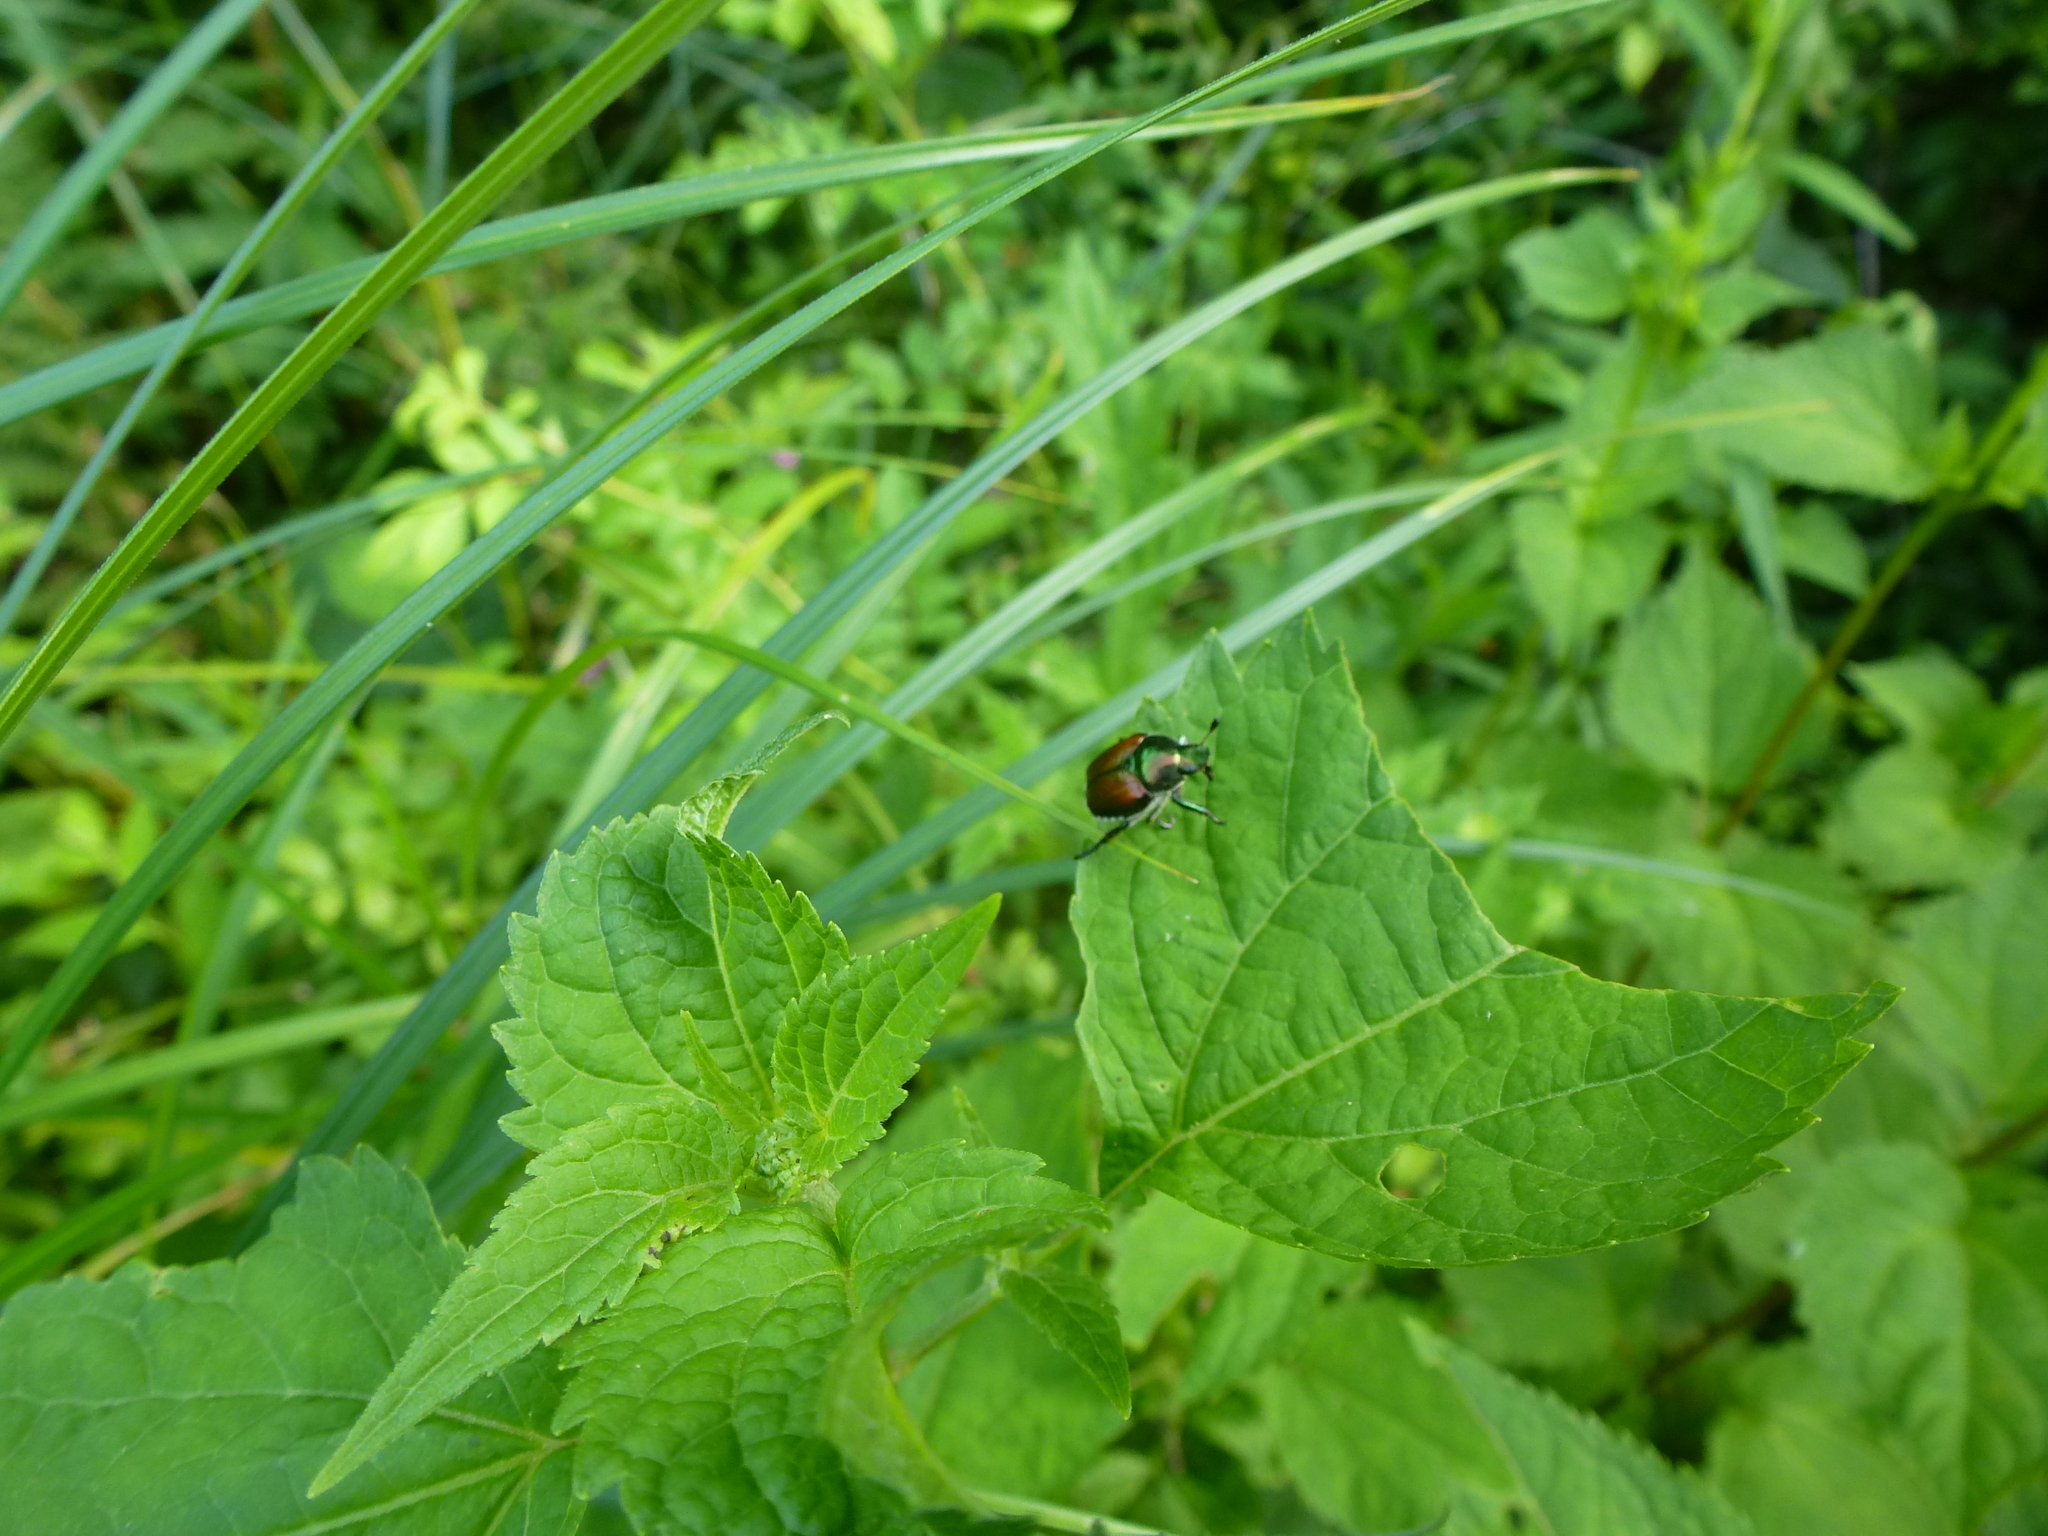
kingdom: Animalia
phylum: Arthropoda
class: Insecta
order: Coleoptera
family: Scarabaeidae
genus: Popillia
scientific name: Popillia japonica
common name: Japanese beetle
